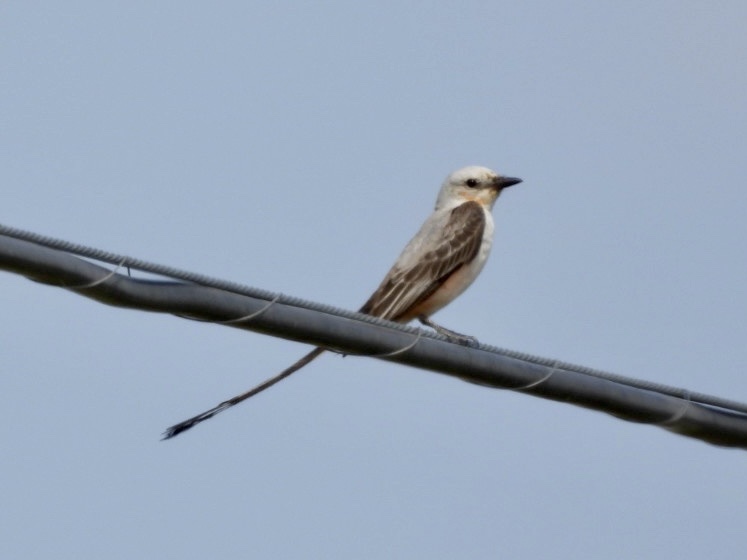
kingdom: Animalia
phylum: Chordata
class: Aves
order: Passeriformes
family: Tyrannidae
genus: Tyrannus
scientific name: Tyrannus forficatus
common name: Scissor-tailed flycatcher
